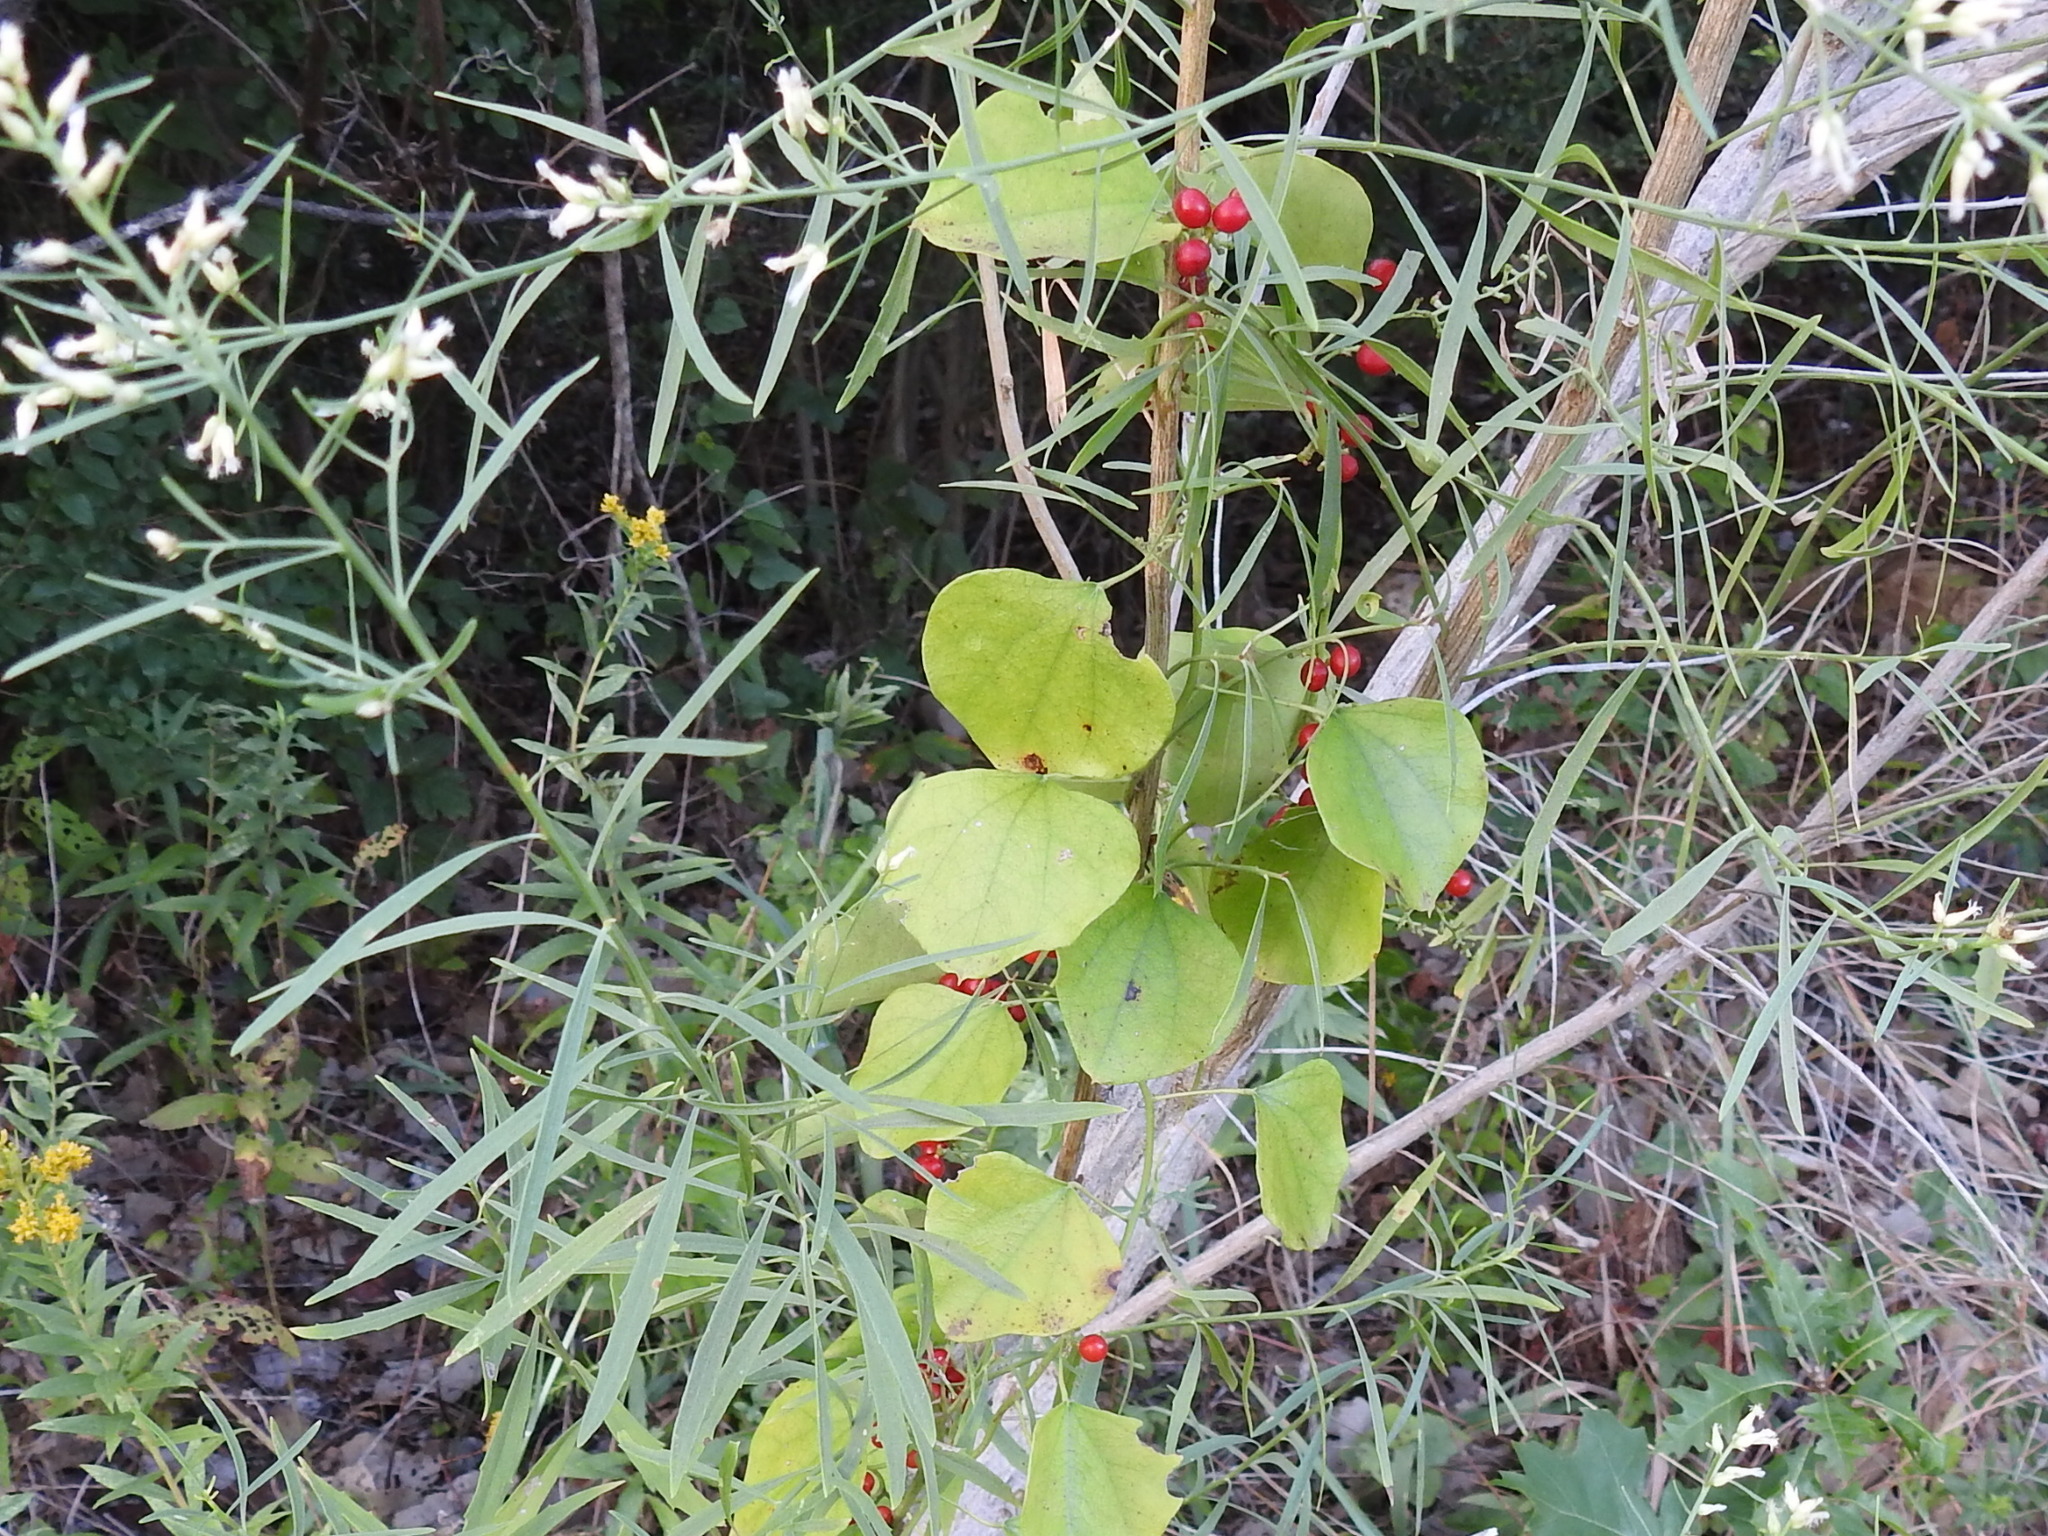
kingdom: Plantae
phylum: Tracheophyta
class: Magnoliopsida
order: Ranunculales
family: Menispermaceae
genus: Cocculus
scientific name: Cocculus carolinus
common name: Carolina moonseed
